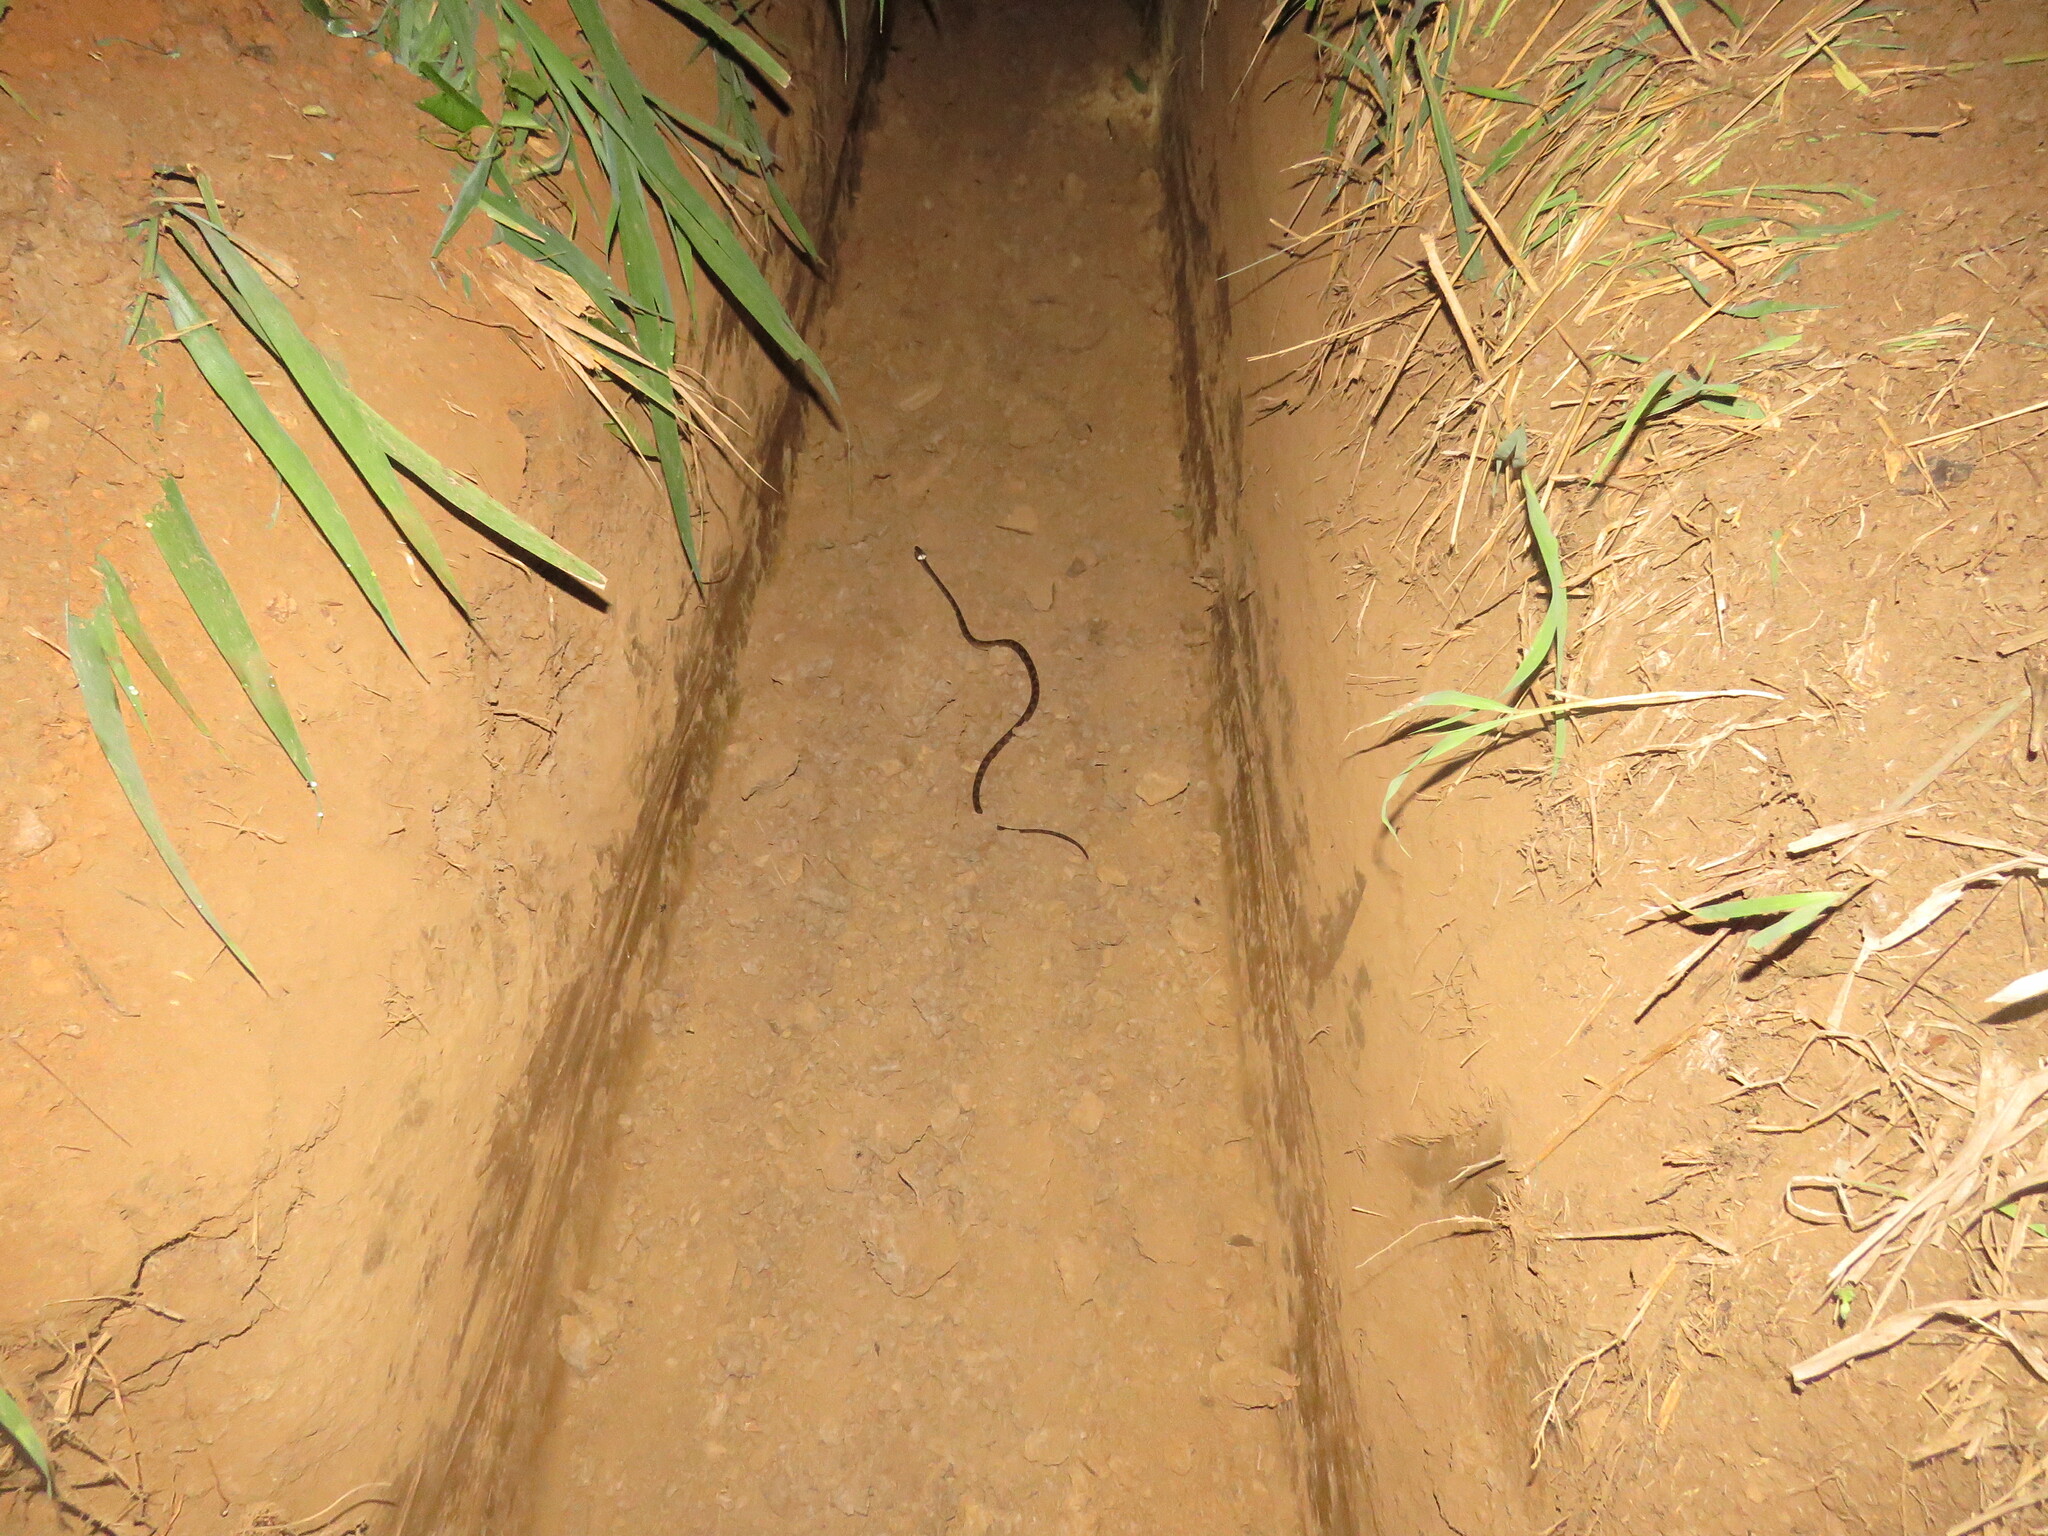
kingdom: Animalia
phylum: Chordata
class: Squamata
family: Colubridae
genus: Leptodeira
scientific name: Leptodeira annulata
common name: Banded cat-eyed snake
